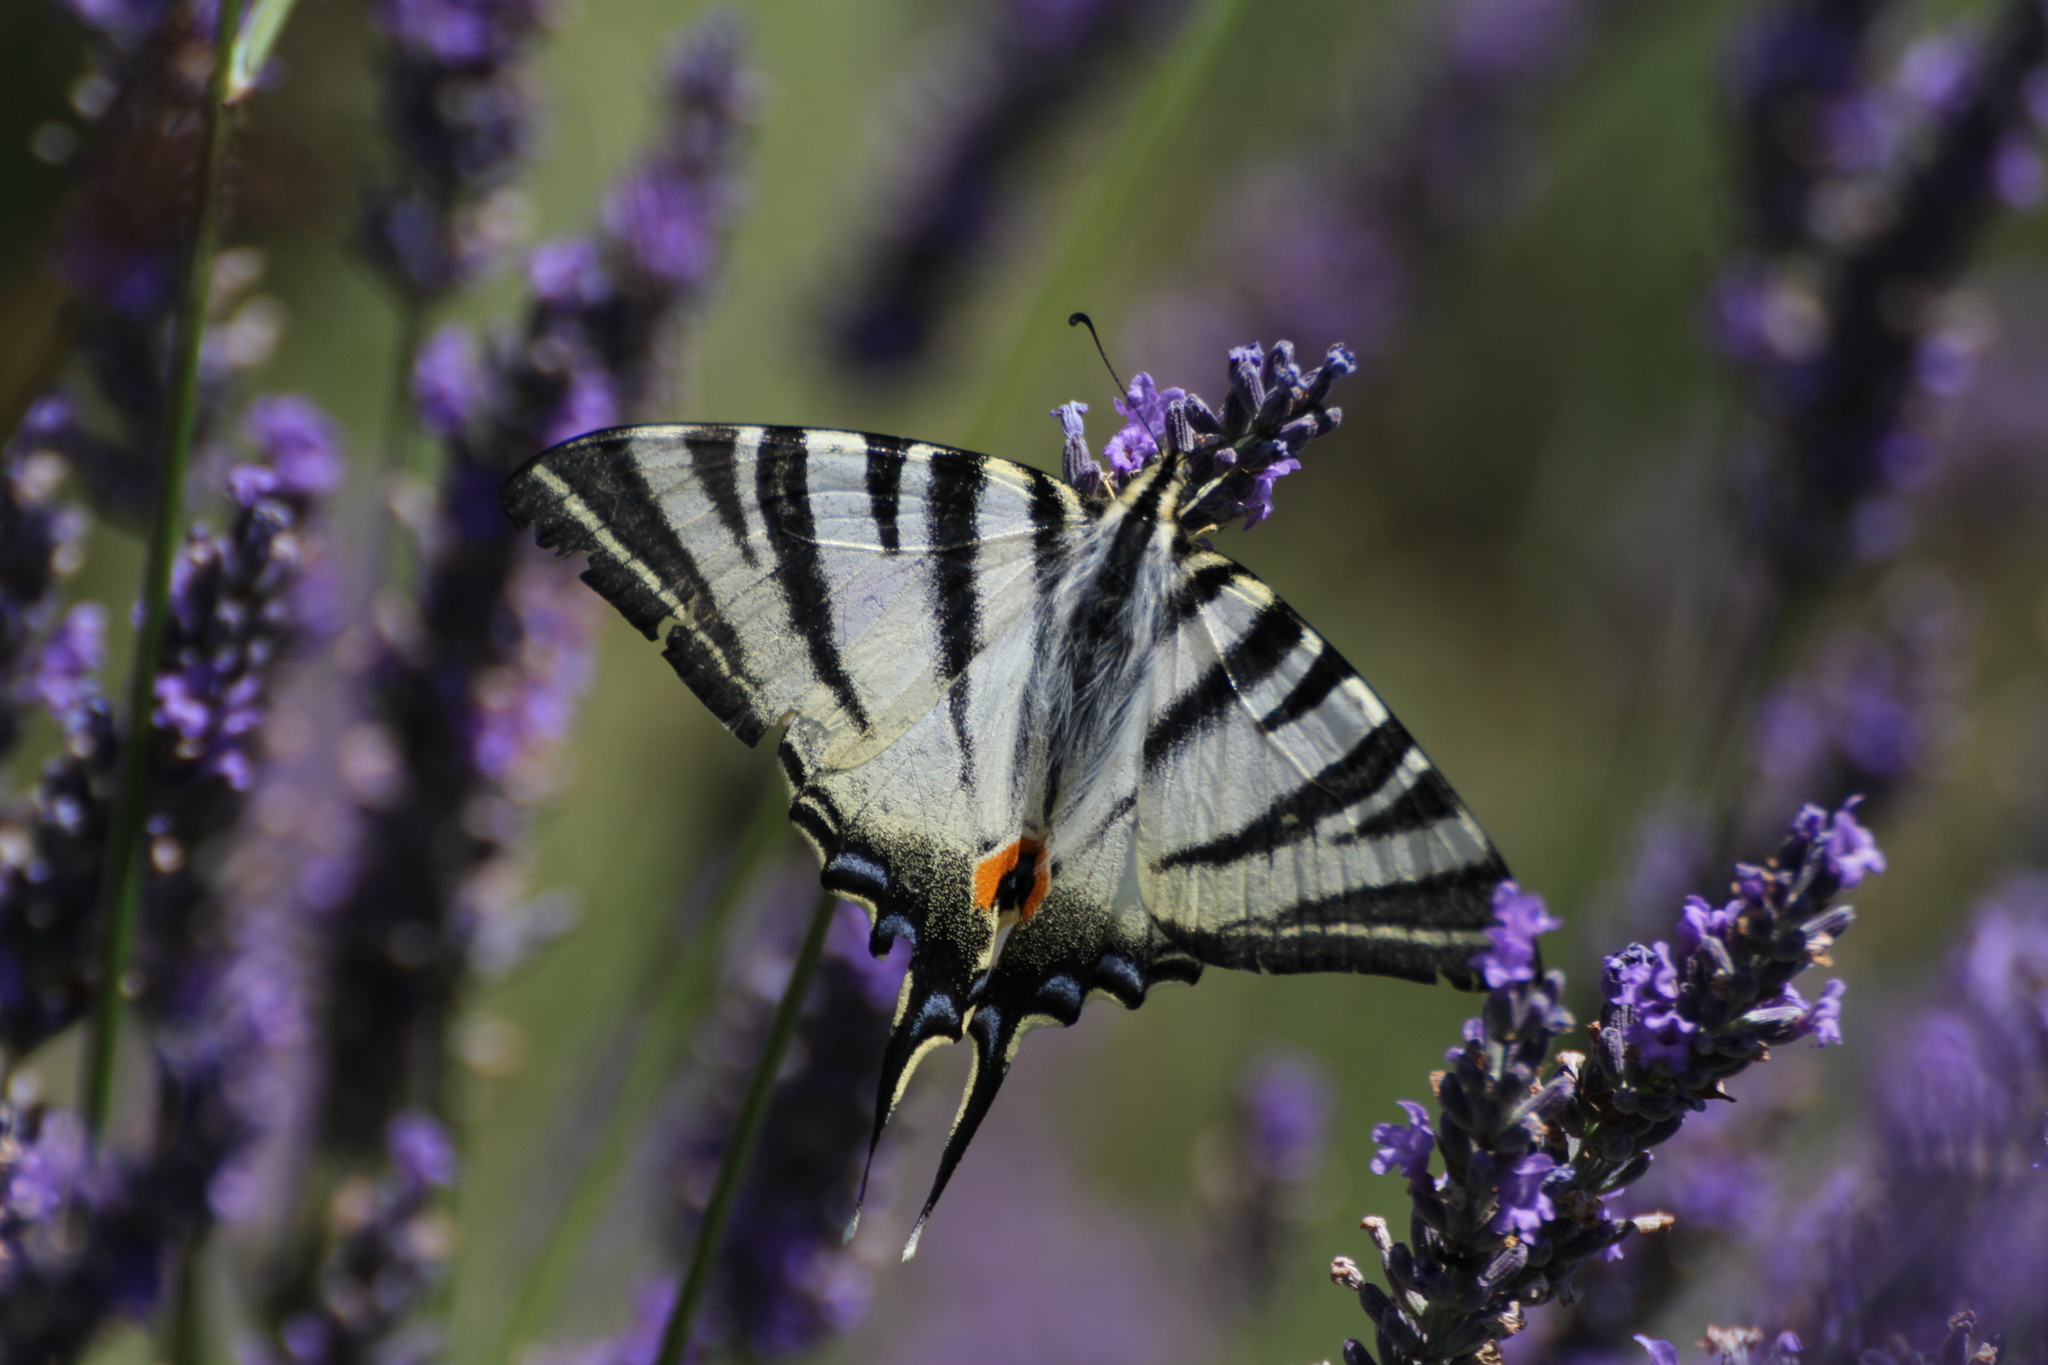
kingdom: Animalia
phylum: Arthropoda
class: Insecta
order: Lepidoptera
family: Papilionidae
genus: Iphiclides
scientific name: Iphiclides podalirius
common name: Scarce swallowtail
